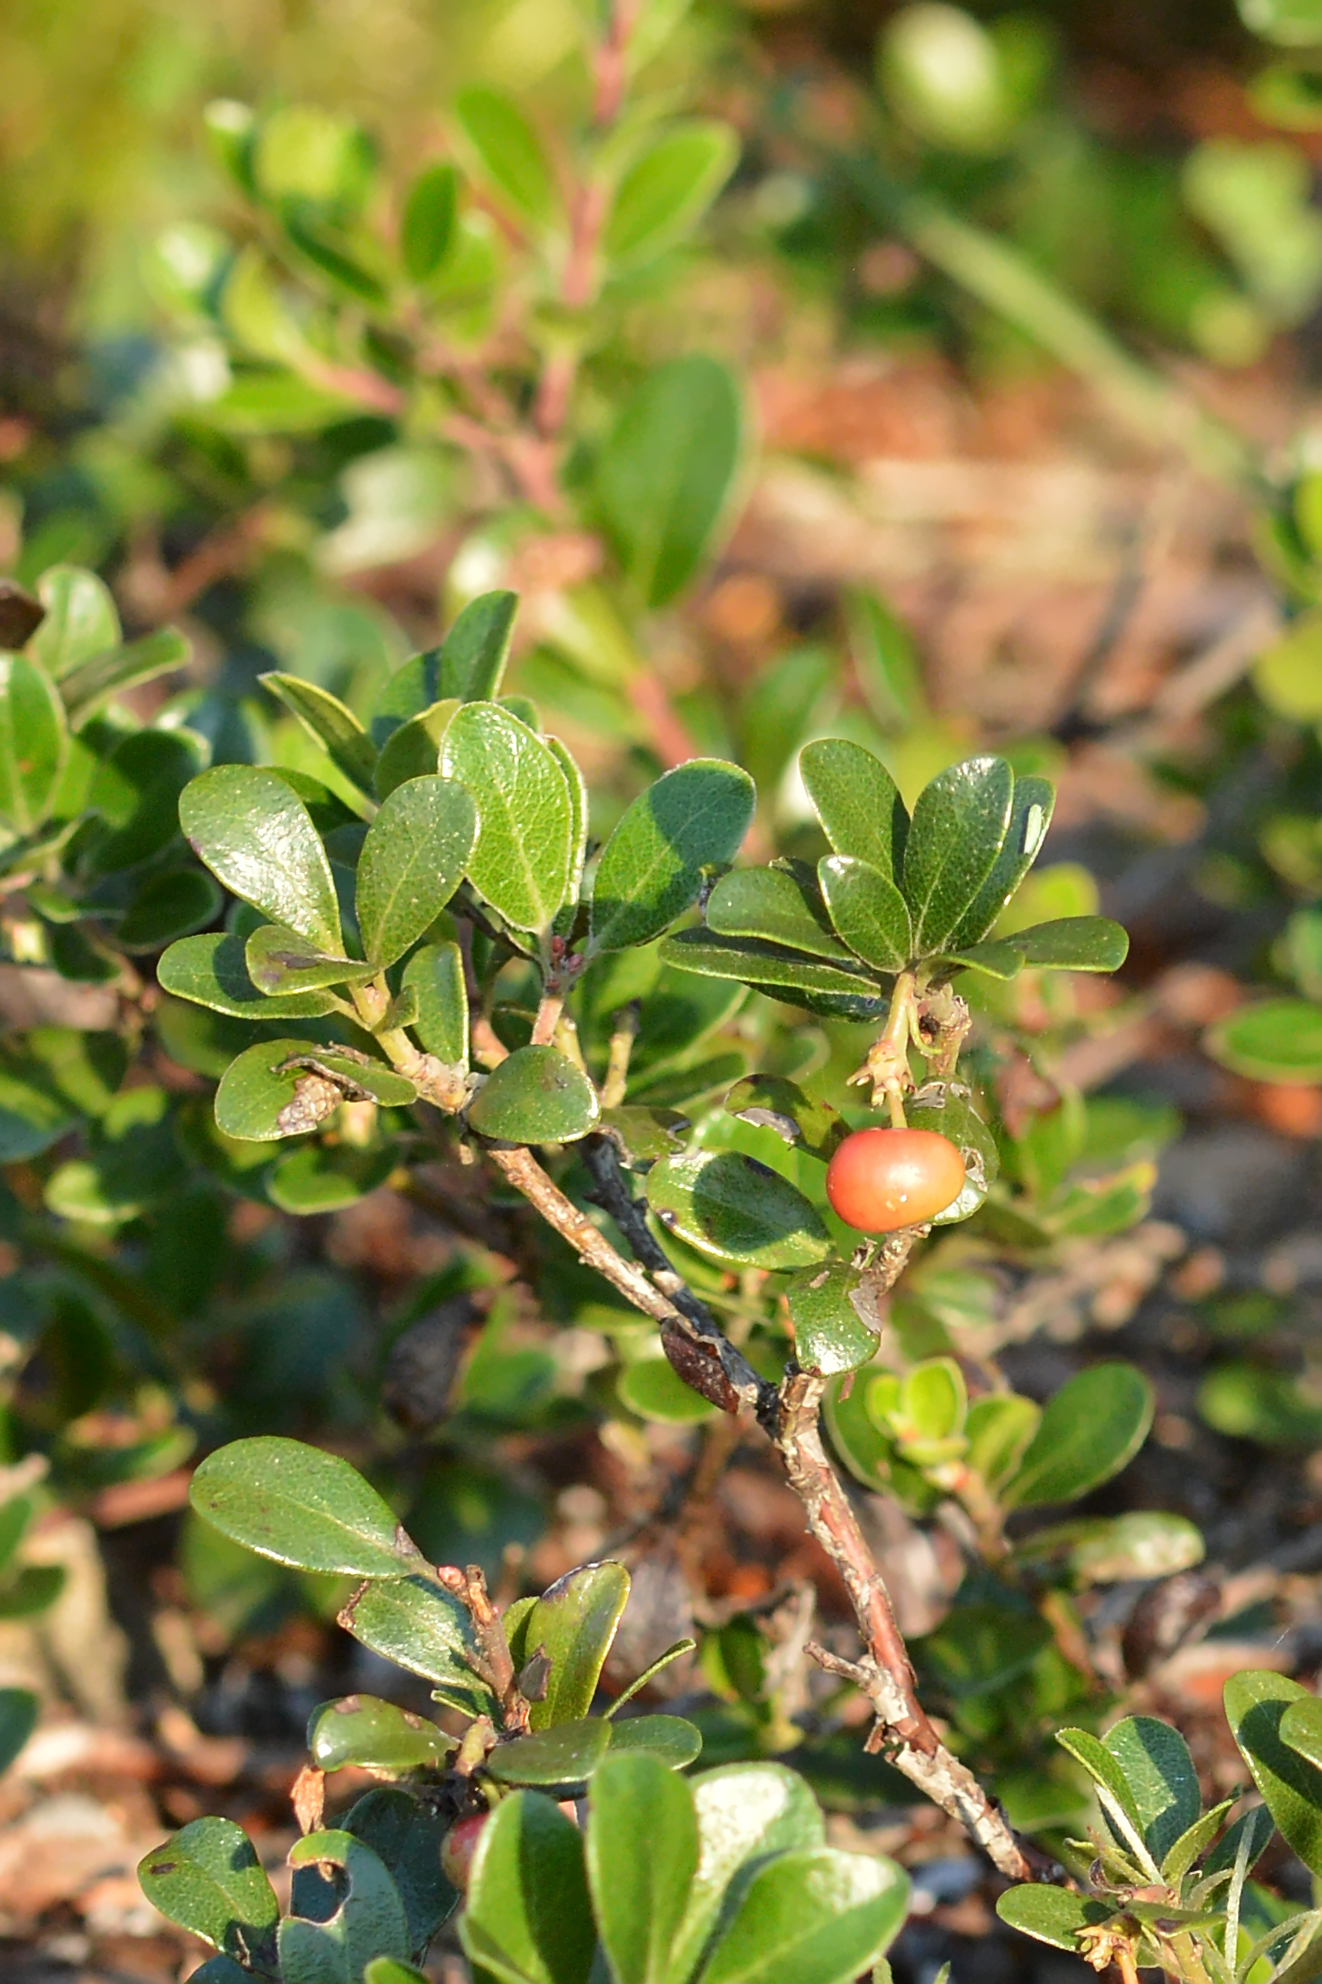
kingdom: Plantae
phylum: Tracheophyta
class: Magnoliopsida
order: Ericales
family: Ericaceae
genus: Arctostaphylos
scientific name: Arctostaphylos uva-ursi
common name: Bearberry
